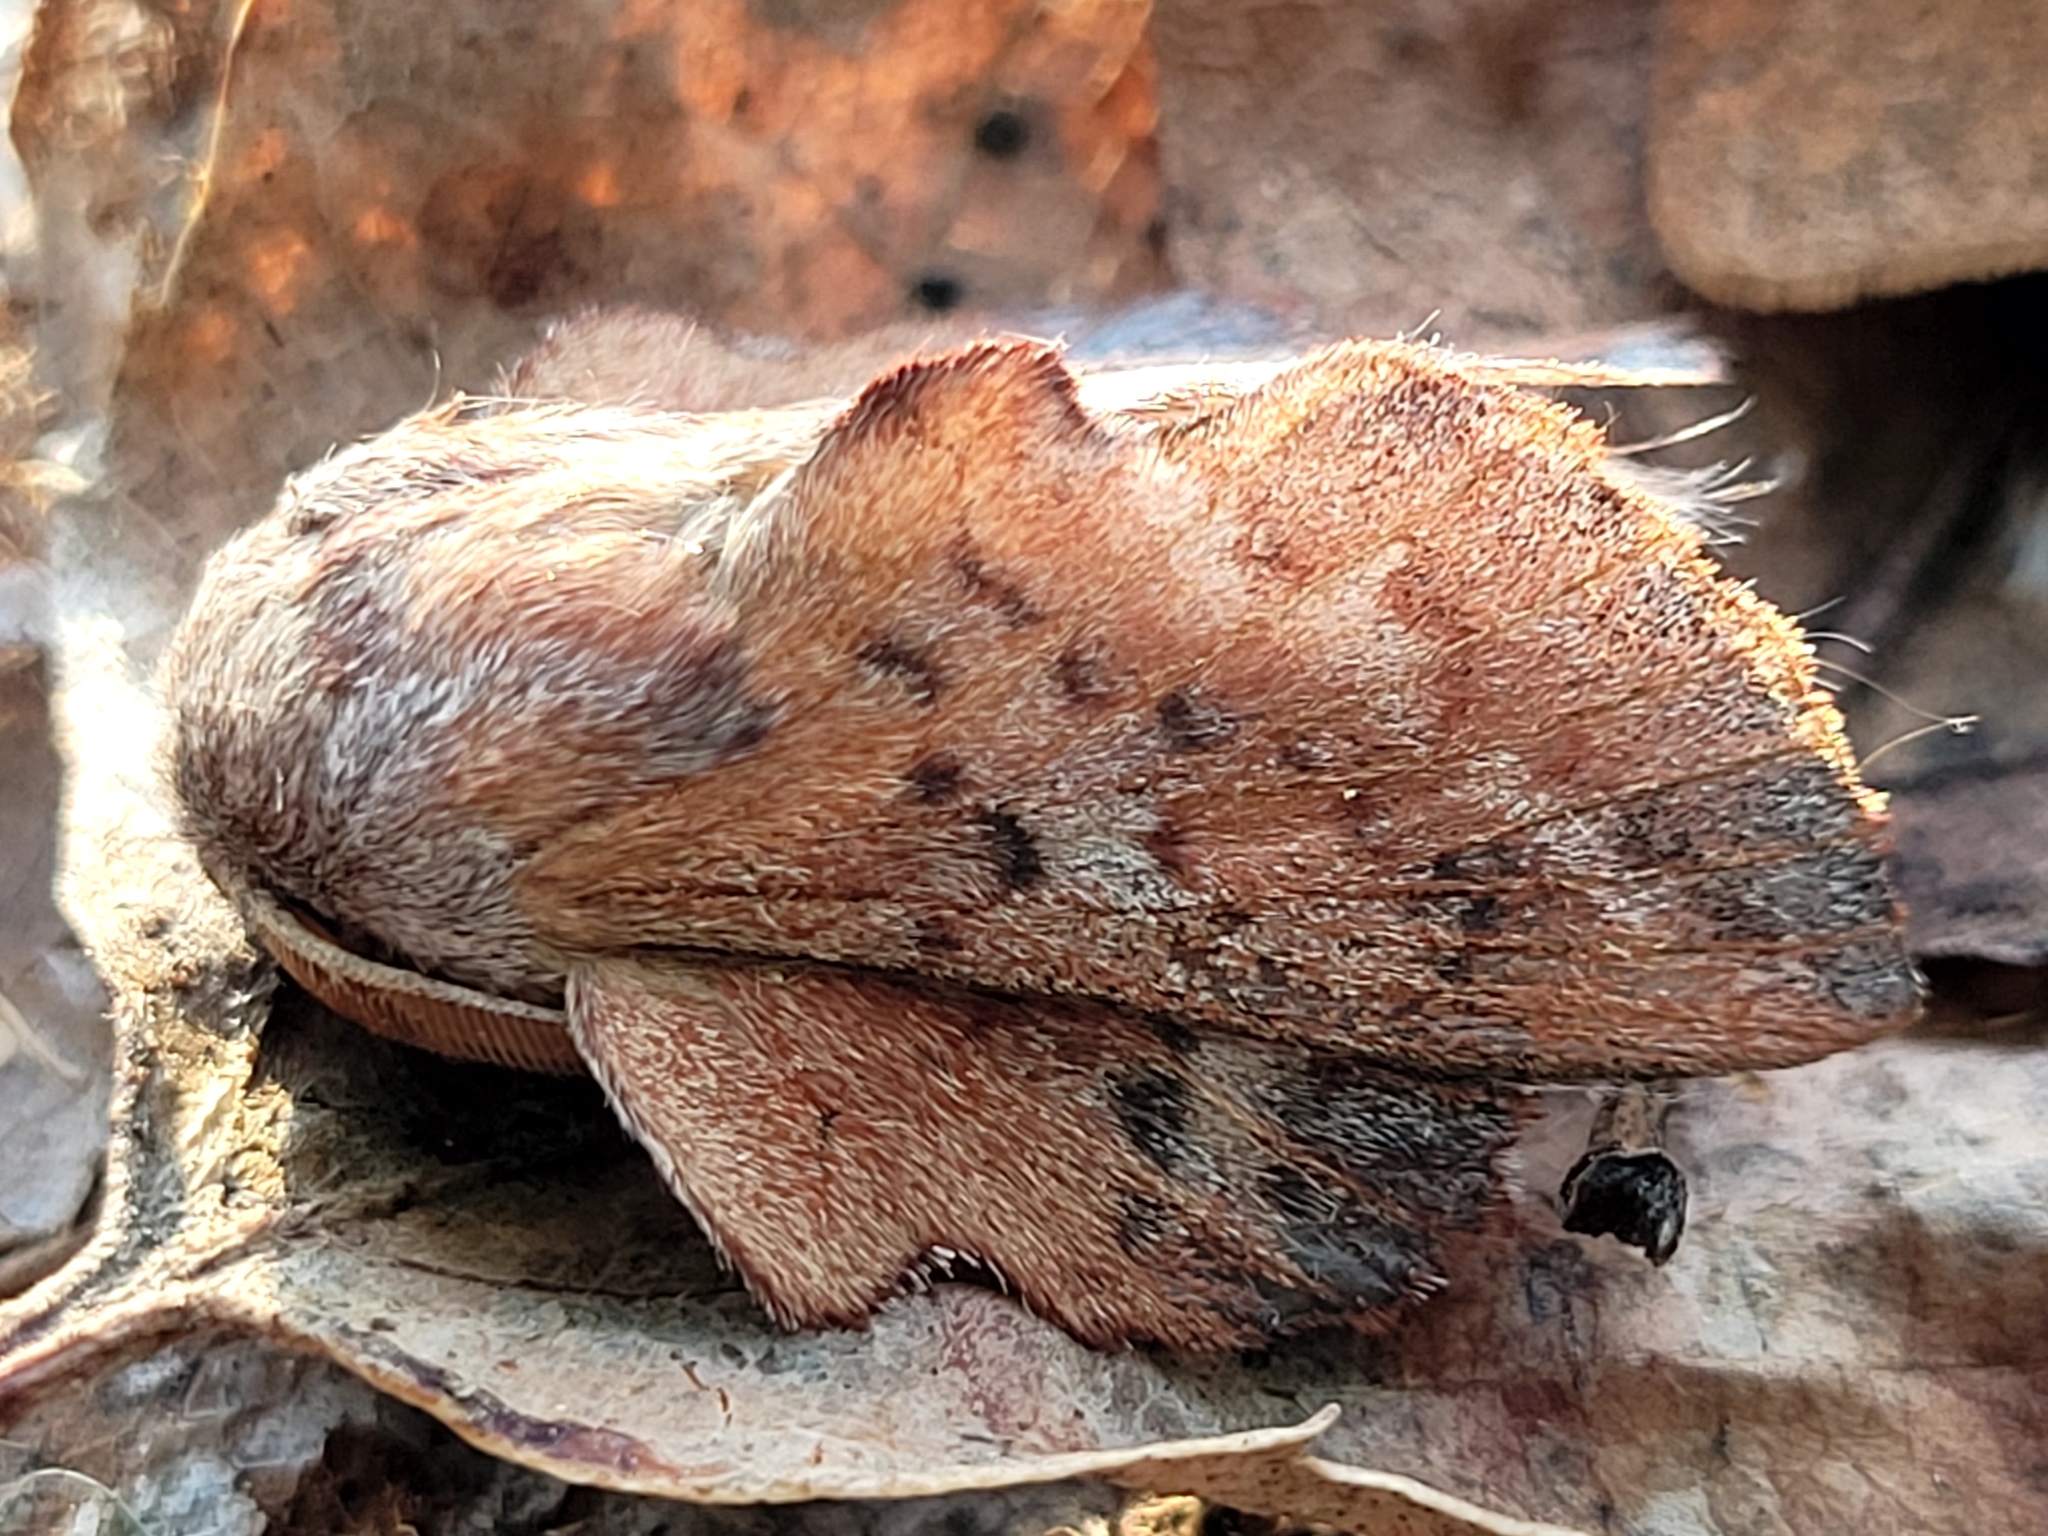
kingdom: Animalia
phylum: Arthropoda
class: Insecta
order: Lepidoptera
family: Lasiocampidae
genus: Phyllodesma
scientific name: Phyllodesma americana
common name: American lappet moth
